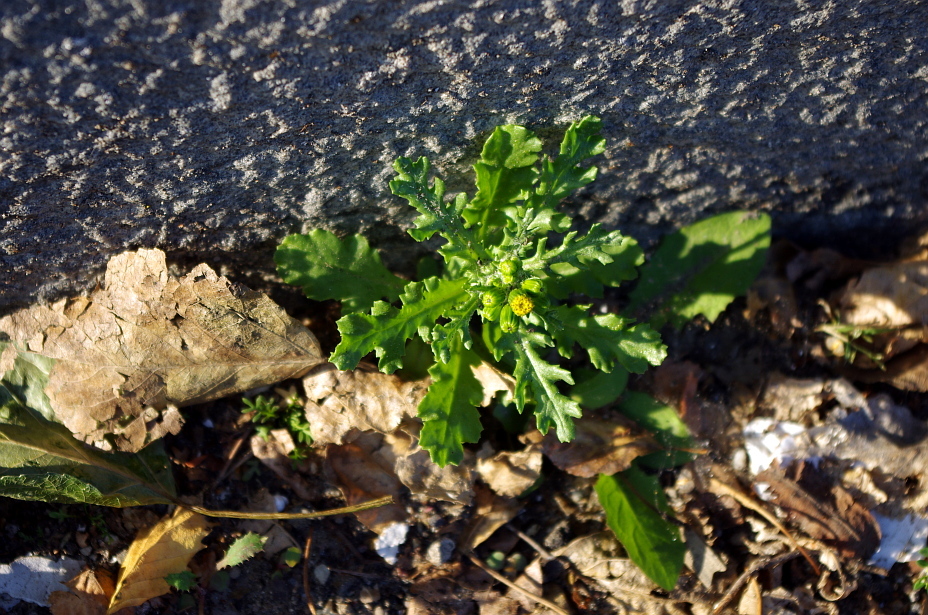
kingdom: Plantae
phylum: Tracheophyta
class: Magnoliopsida
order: Asterales
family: Asteraceae
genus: Senecio
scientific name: Senecio vulgaris
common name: Old-man-in-the-spring
